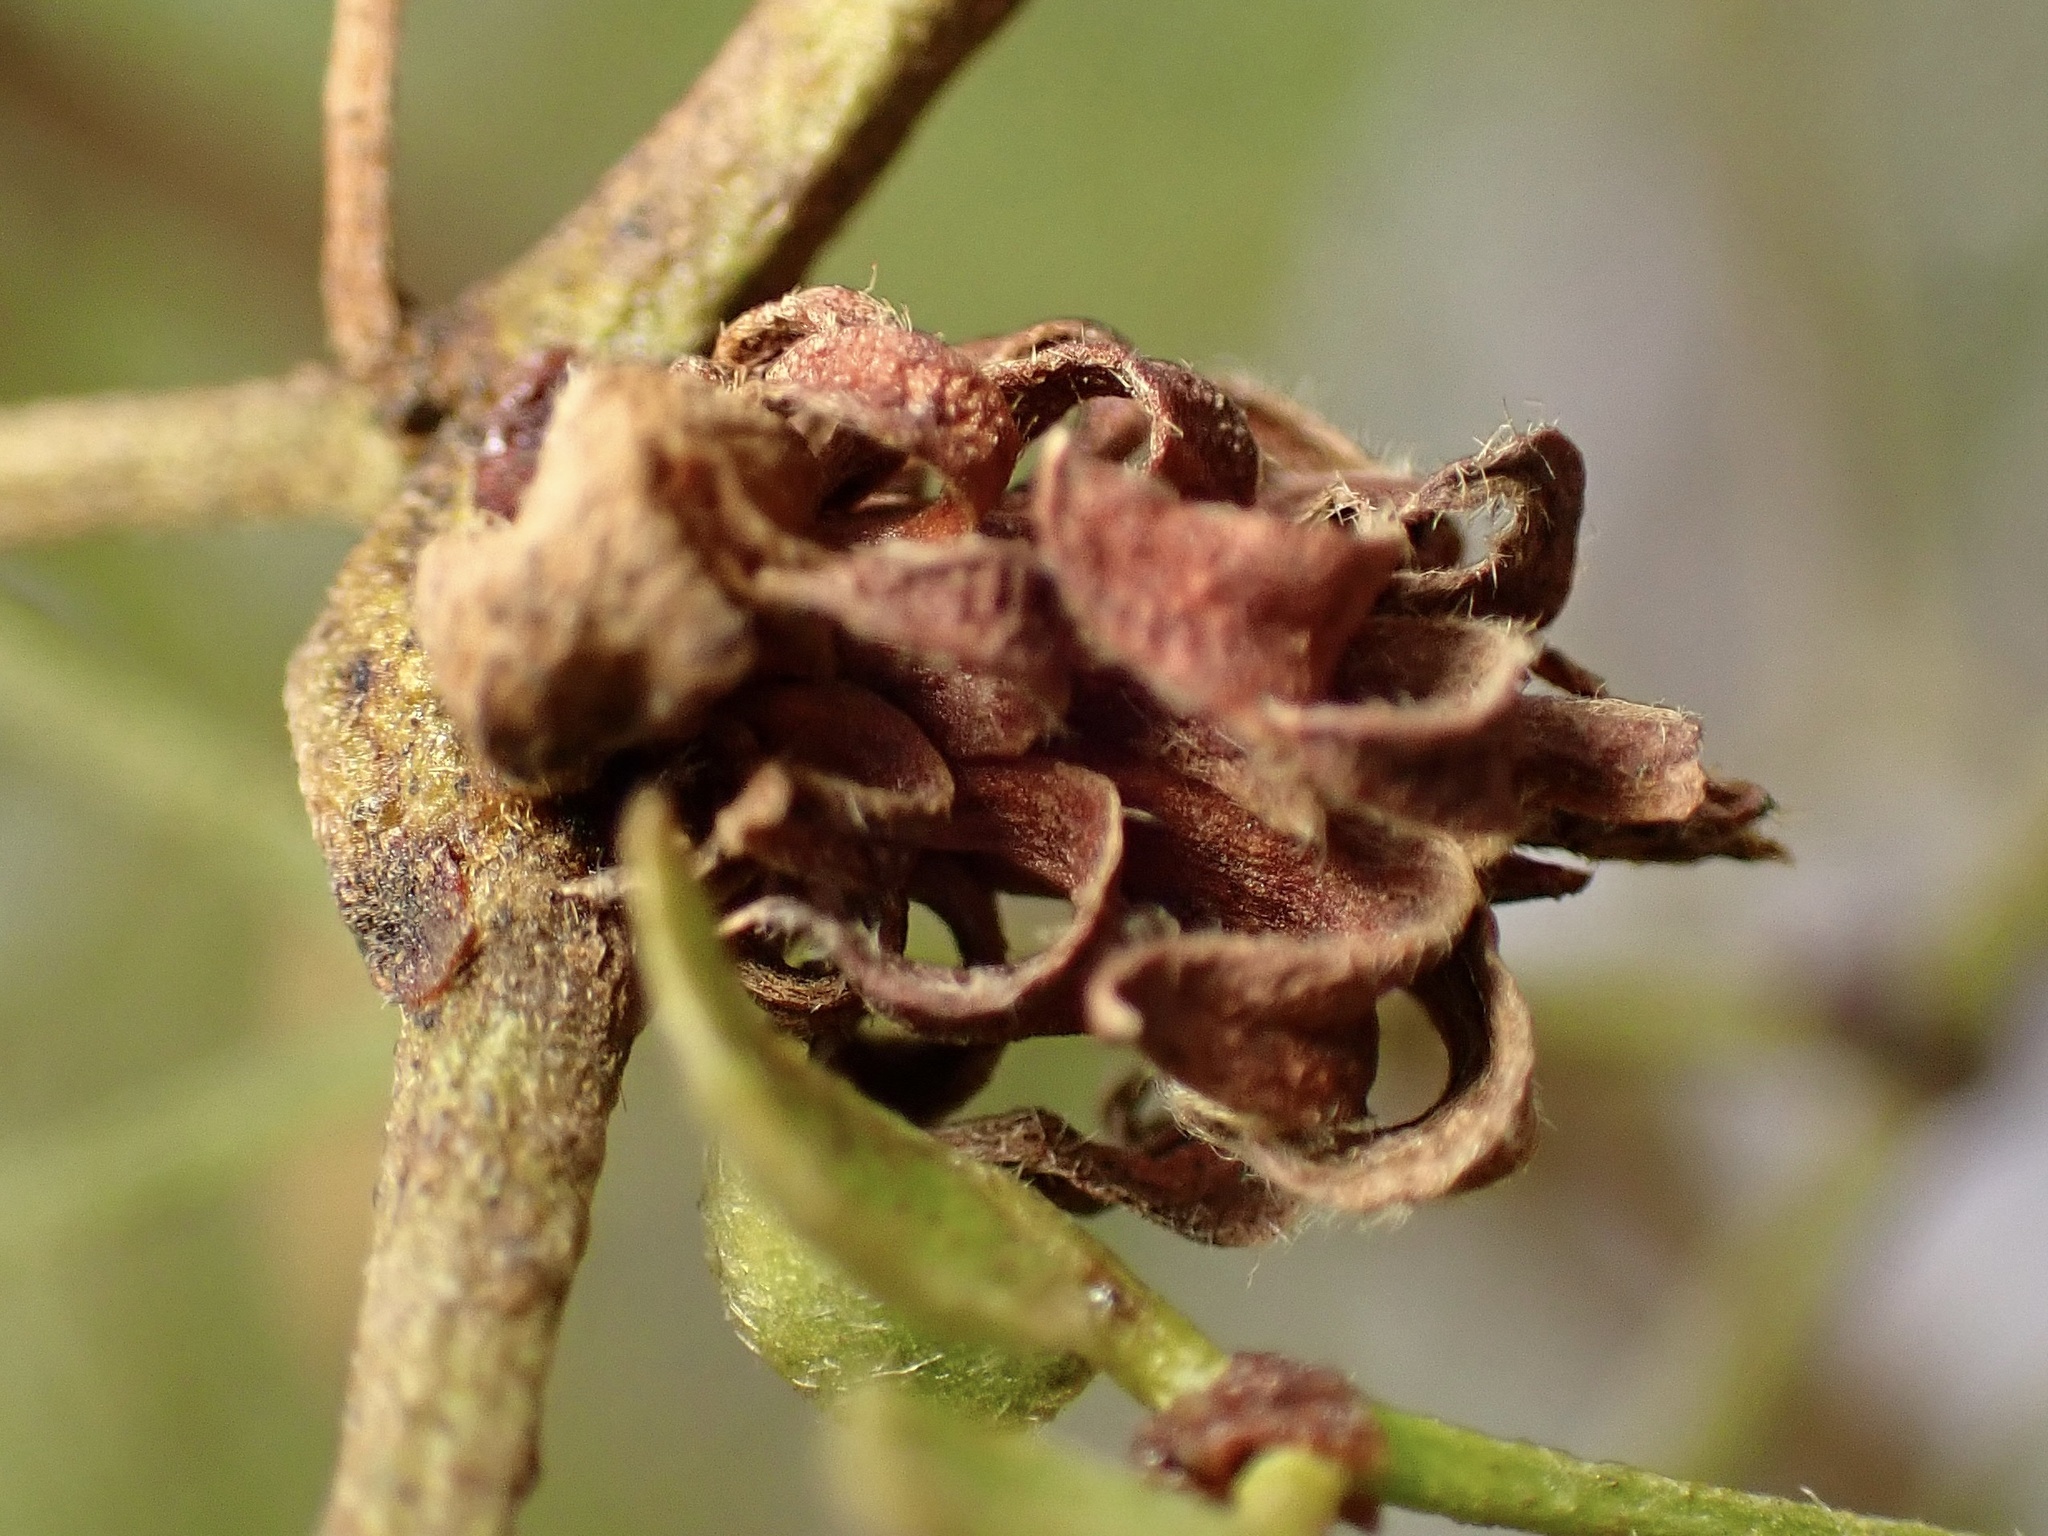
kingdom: Animalia
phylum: Arthropoda
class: Insecta
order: Diptera
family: Cecidomyiidae
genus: Asphondylia
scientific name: Asphondylia rosetta
